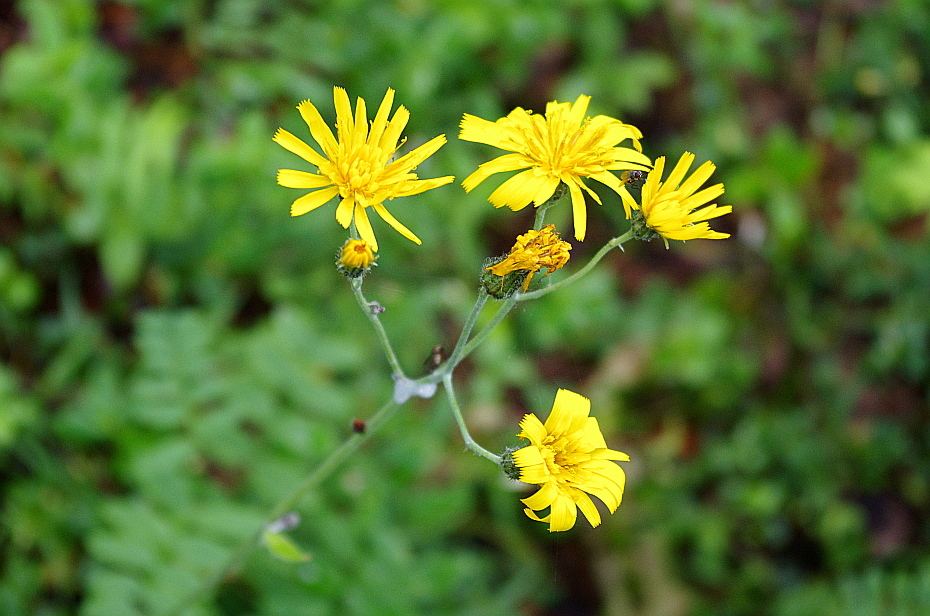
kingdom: Plantae
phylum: Tracheophyta
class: Magnoliopsida
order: Asterales
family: Asteraceae
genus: Hieracium
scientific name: Hieracium murorum
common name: Wall hawkweed
